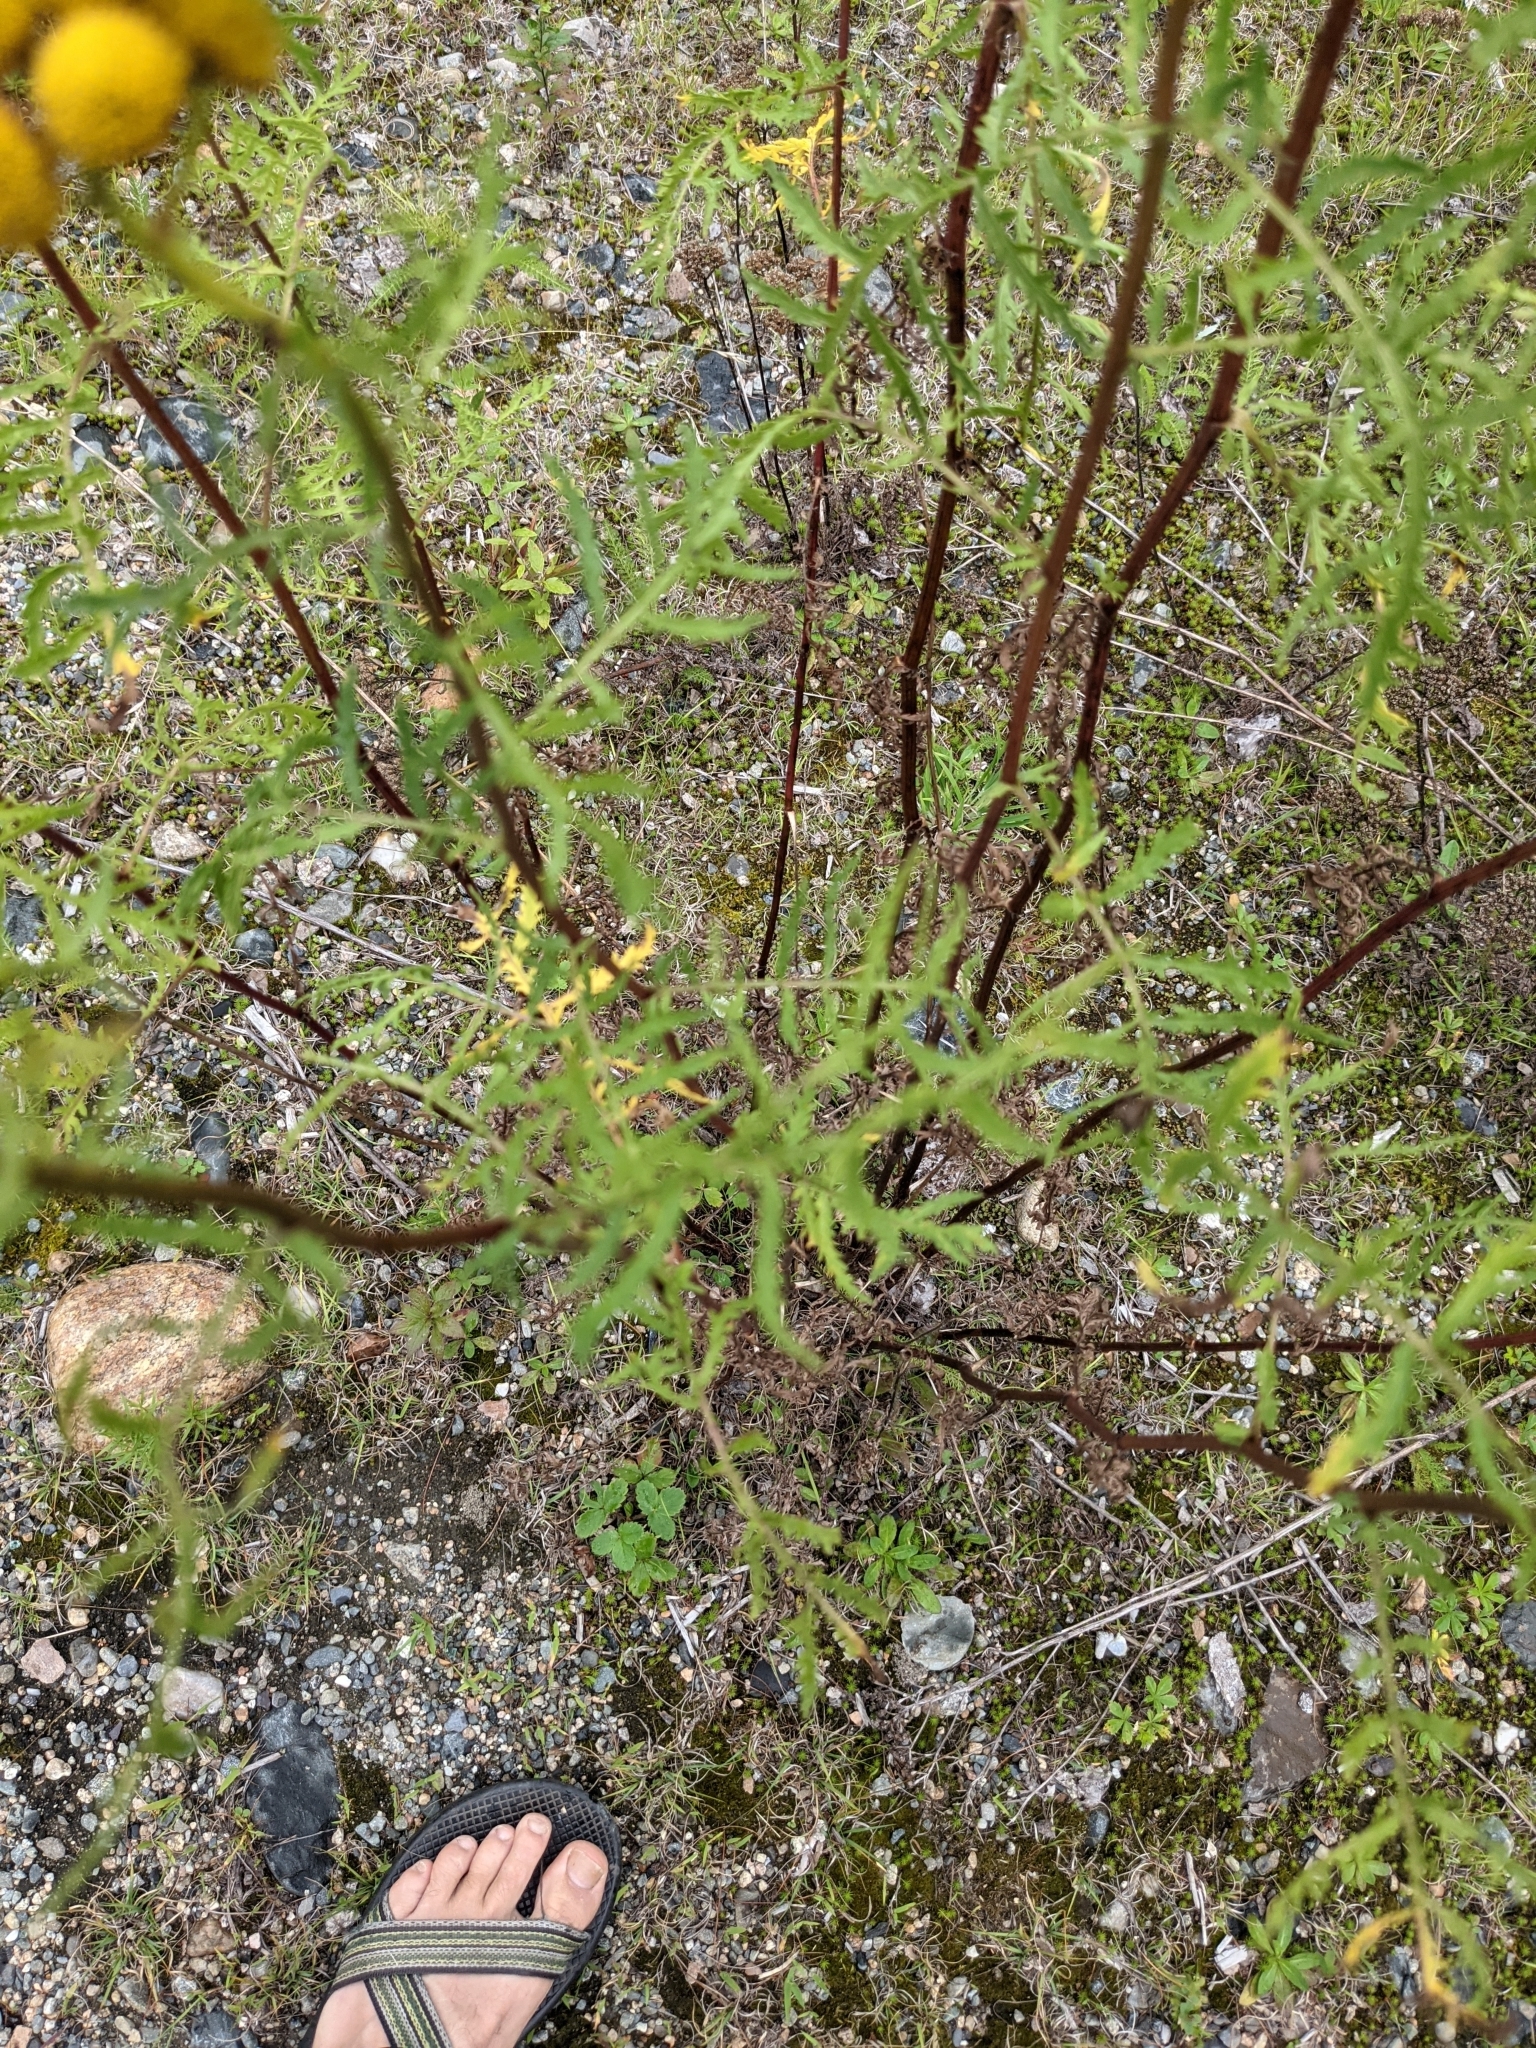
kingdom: Plantae
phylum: Tracheophyta
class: Magnoliopsida
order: Asterales
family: Asteraceae
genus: Tanacetum
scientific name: Tanacetum vulgare
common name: Common tansy
